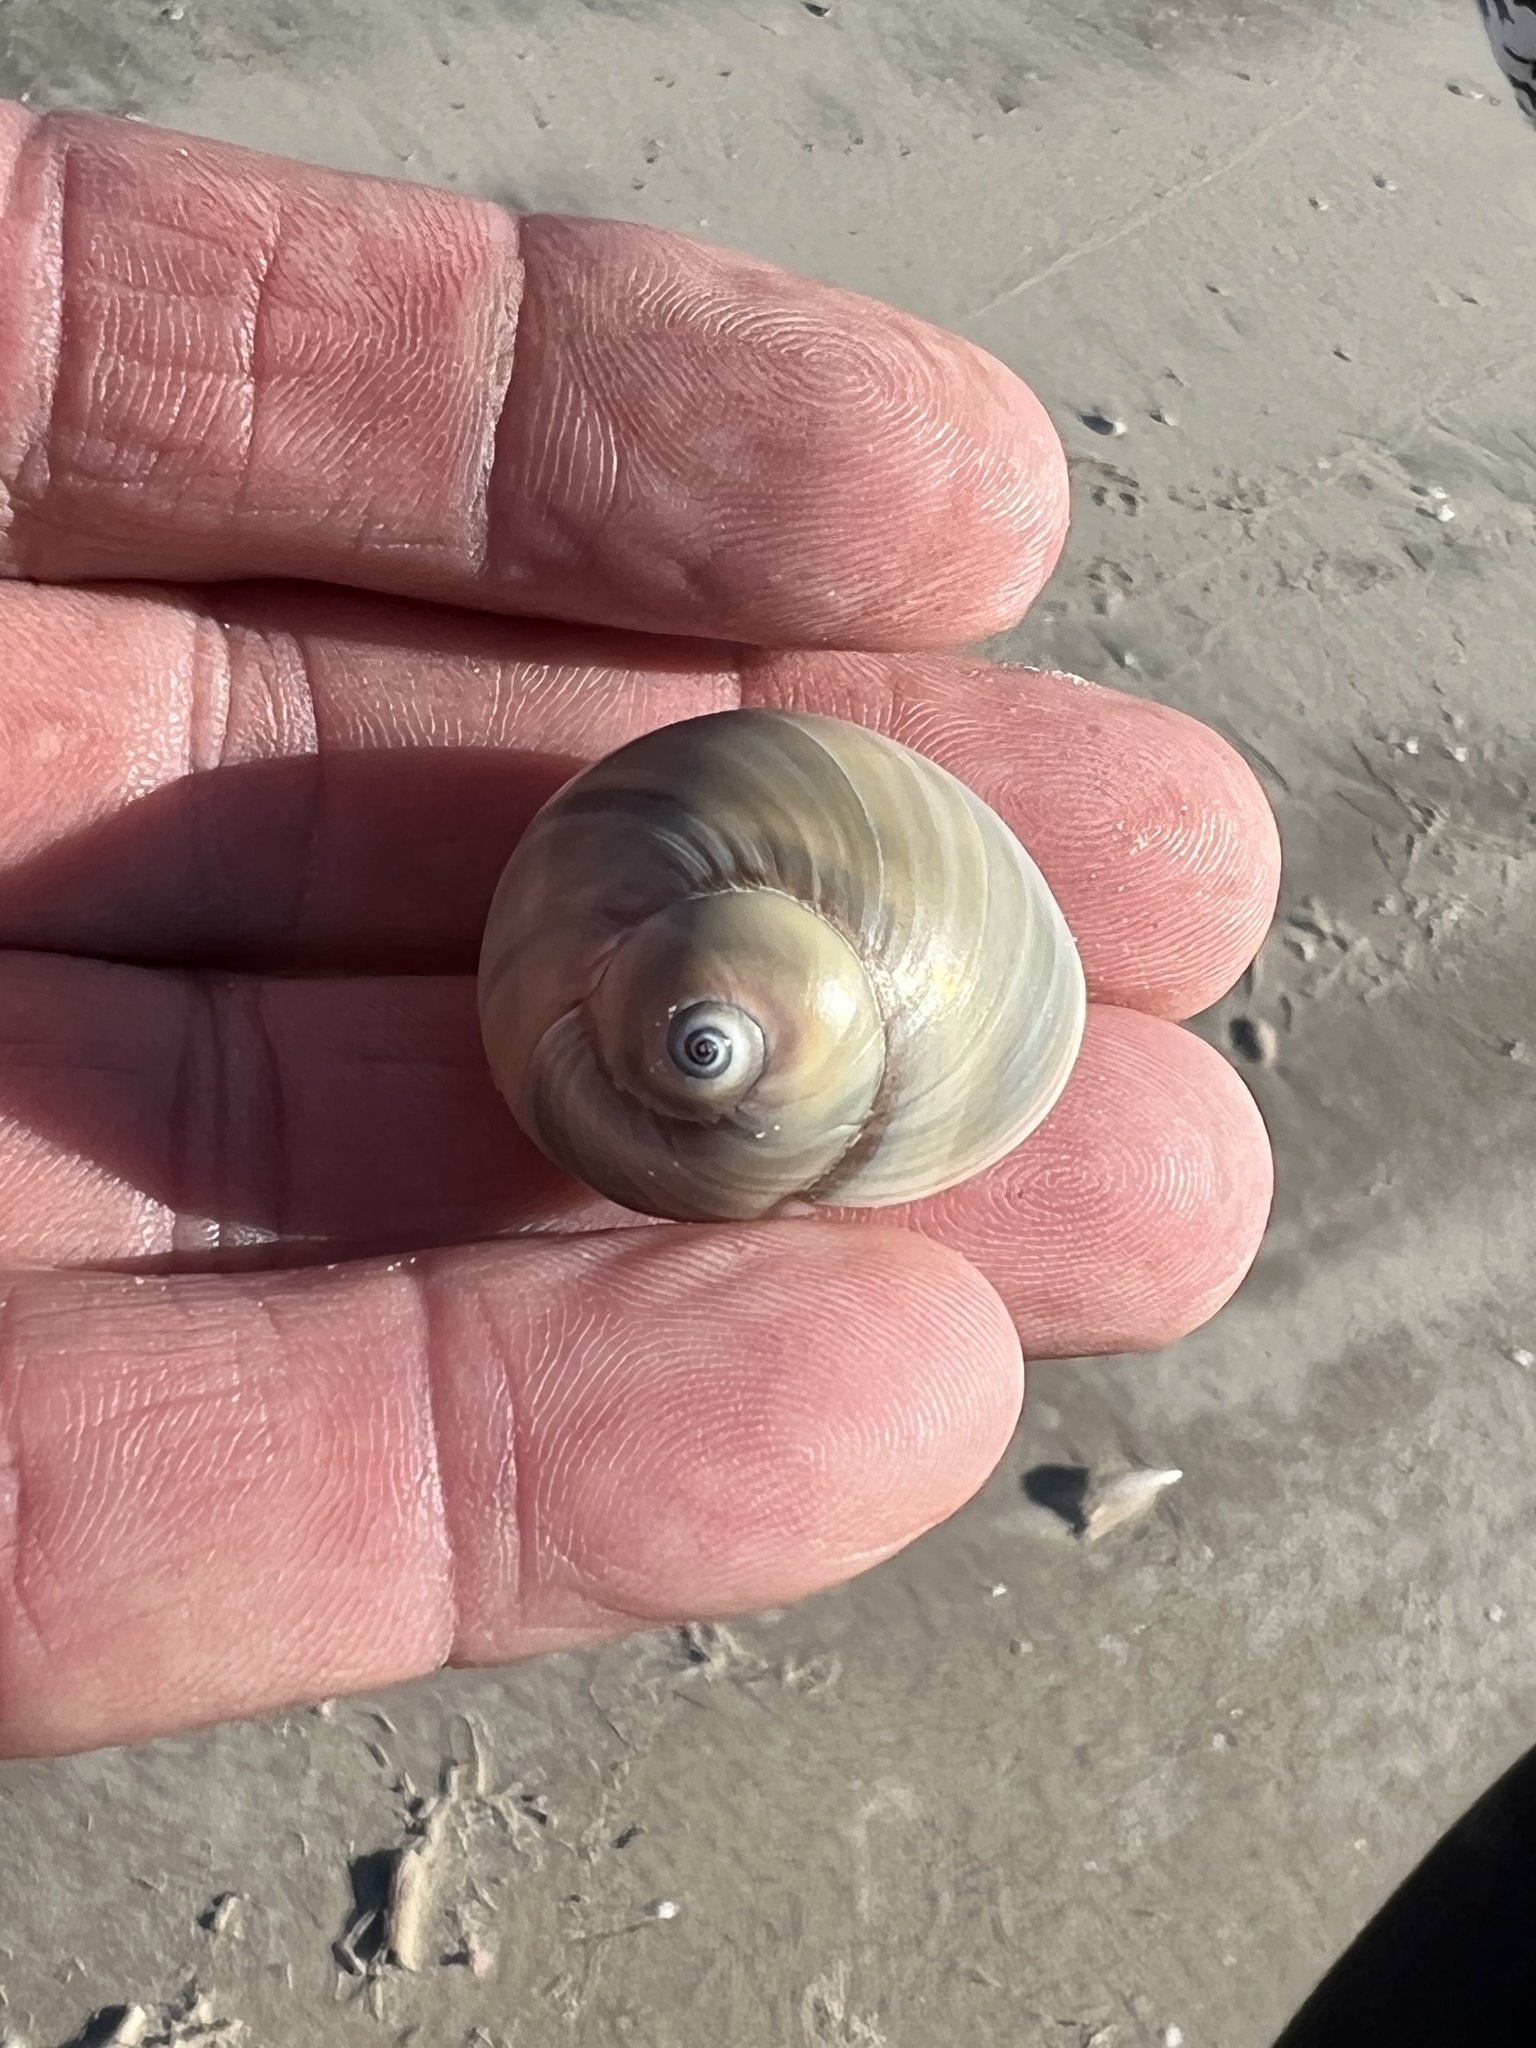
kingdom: Animalia
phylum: Mollusca
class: Gastropoda
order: Littorinimorpha
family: Naticidae
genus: Neverita
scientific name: Neverita duplicata
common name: Lobed moonsnail
